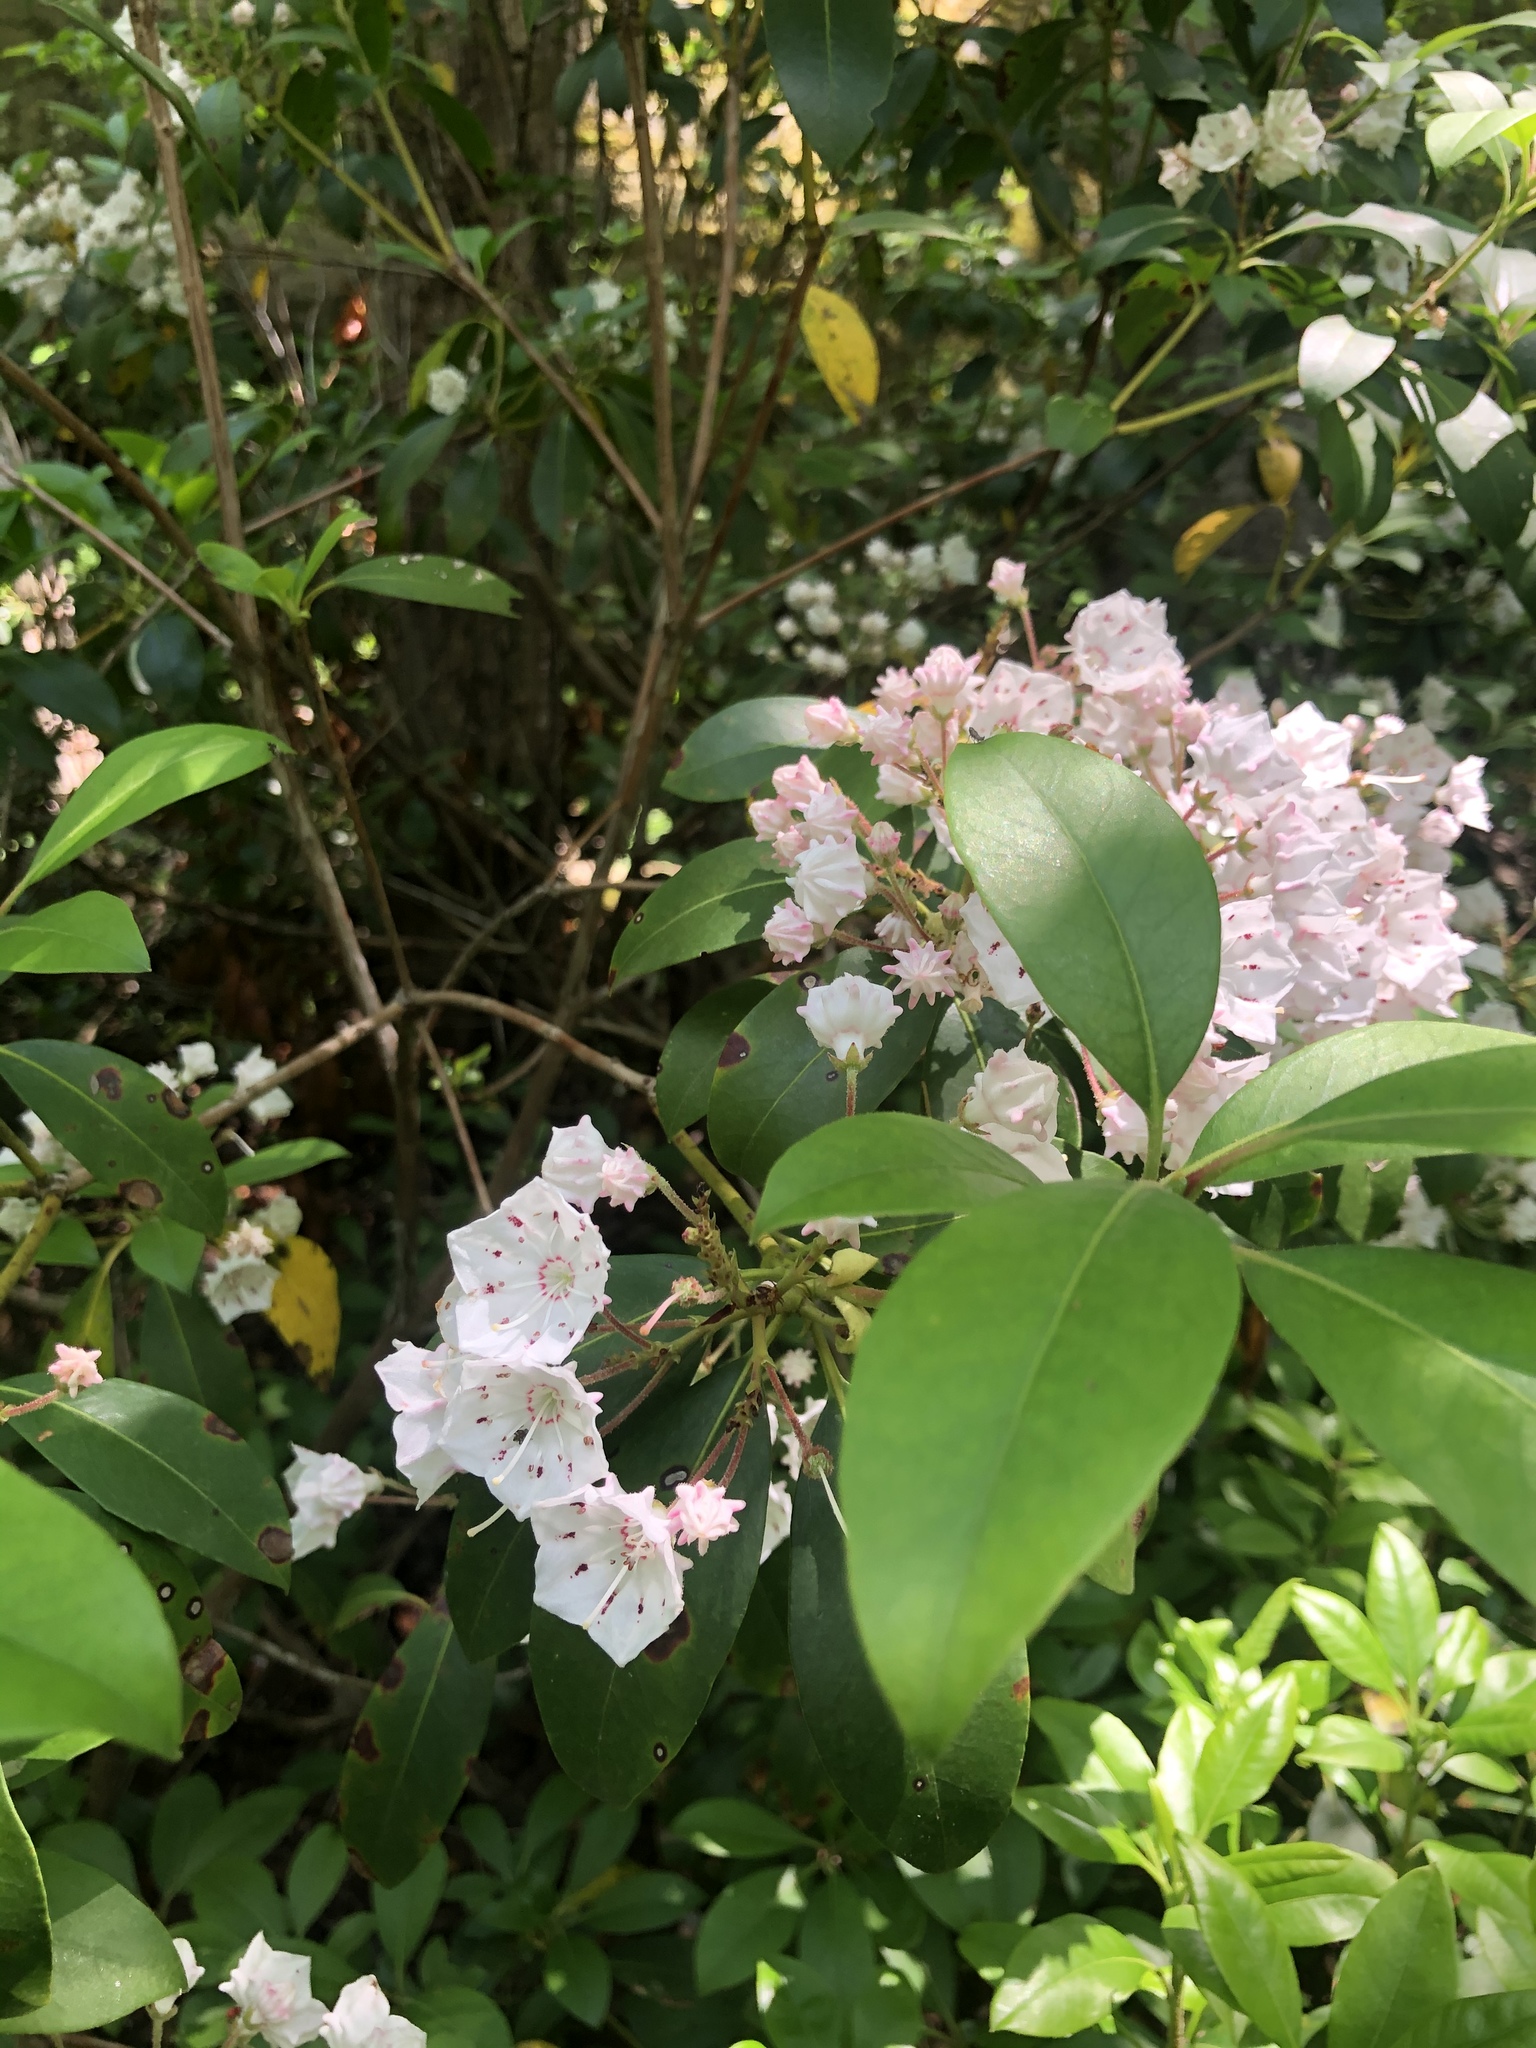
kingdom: Plantae
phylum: Tracheophyta
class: Magnoliopsida
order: Ericales
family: Ericaceae
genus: Kalmia
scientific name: Kalmia latifolia
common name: Mountain-laurel
